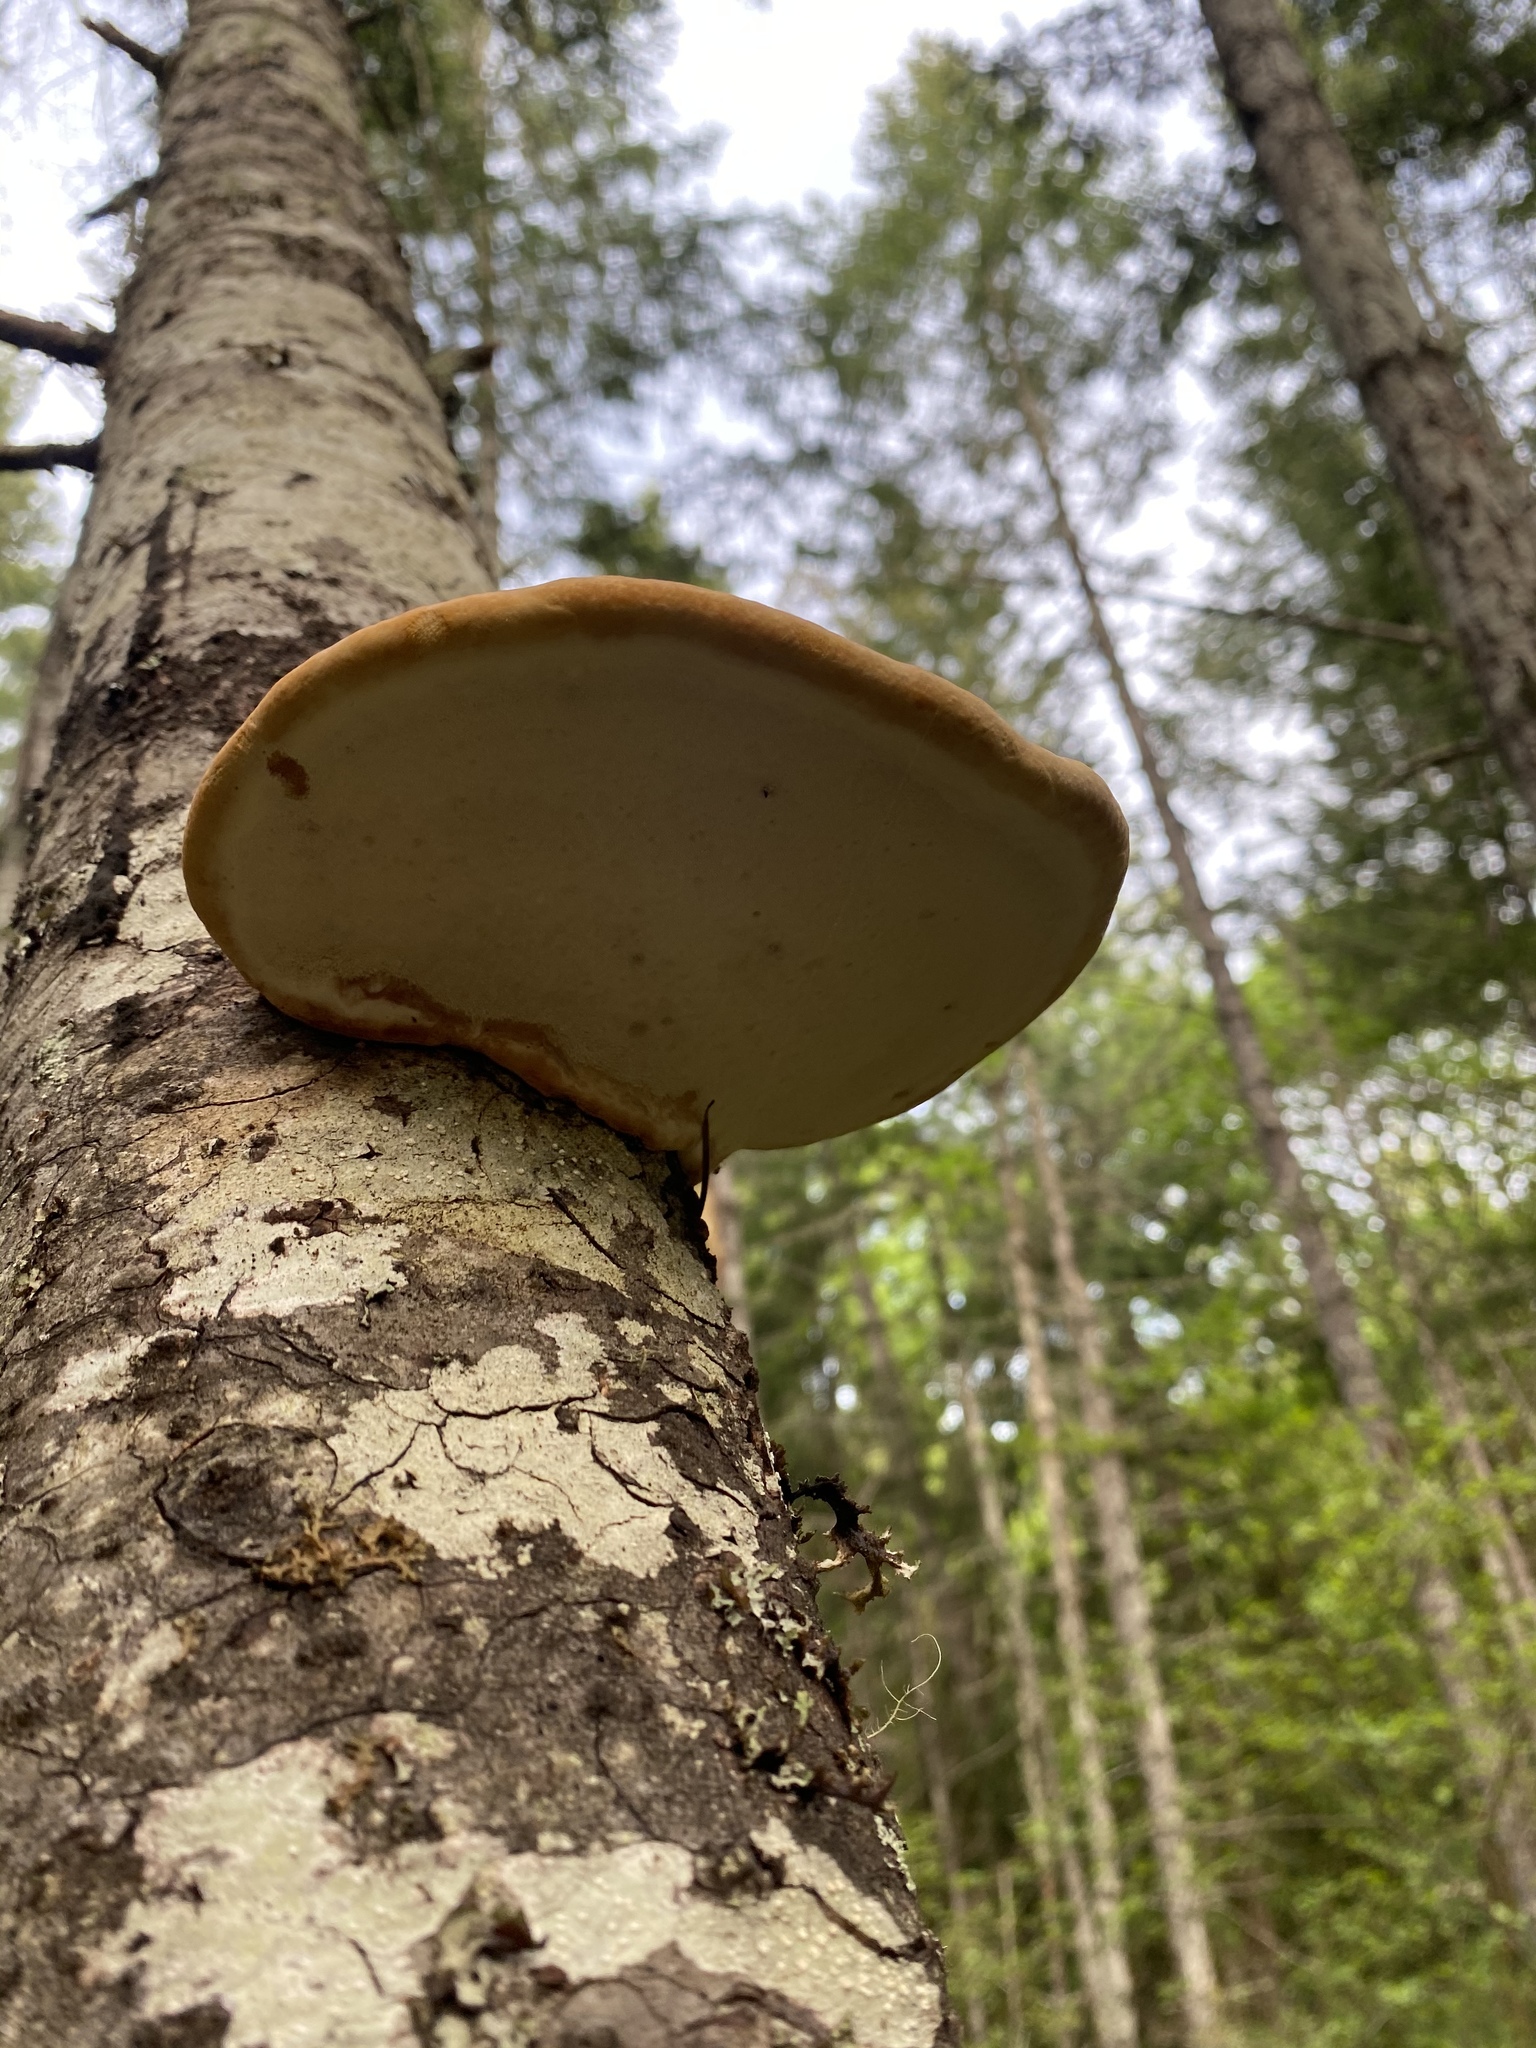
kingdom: Fungi
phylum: Basidiomycota
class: Agaricomycetes
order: Polyporales
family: Fomitopsidaceae
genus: Fomitopsis
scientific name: Fomitopsis mounceae
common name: Northern red belt
